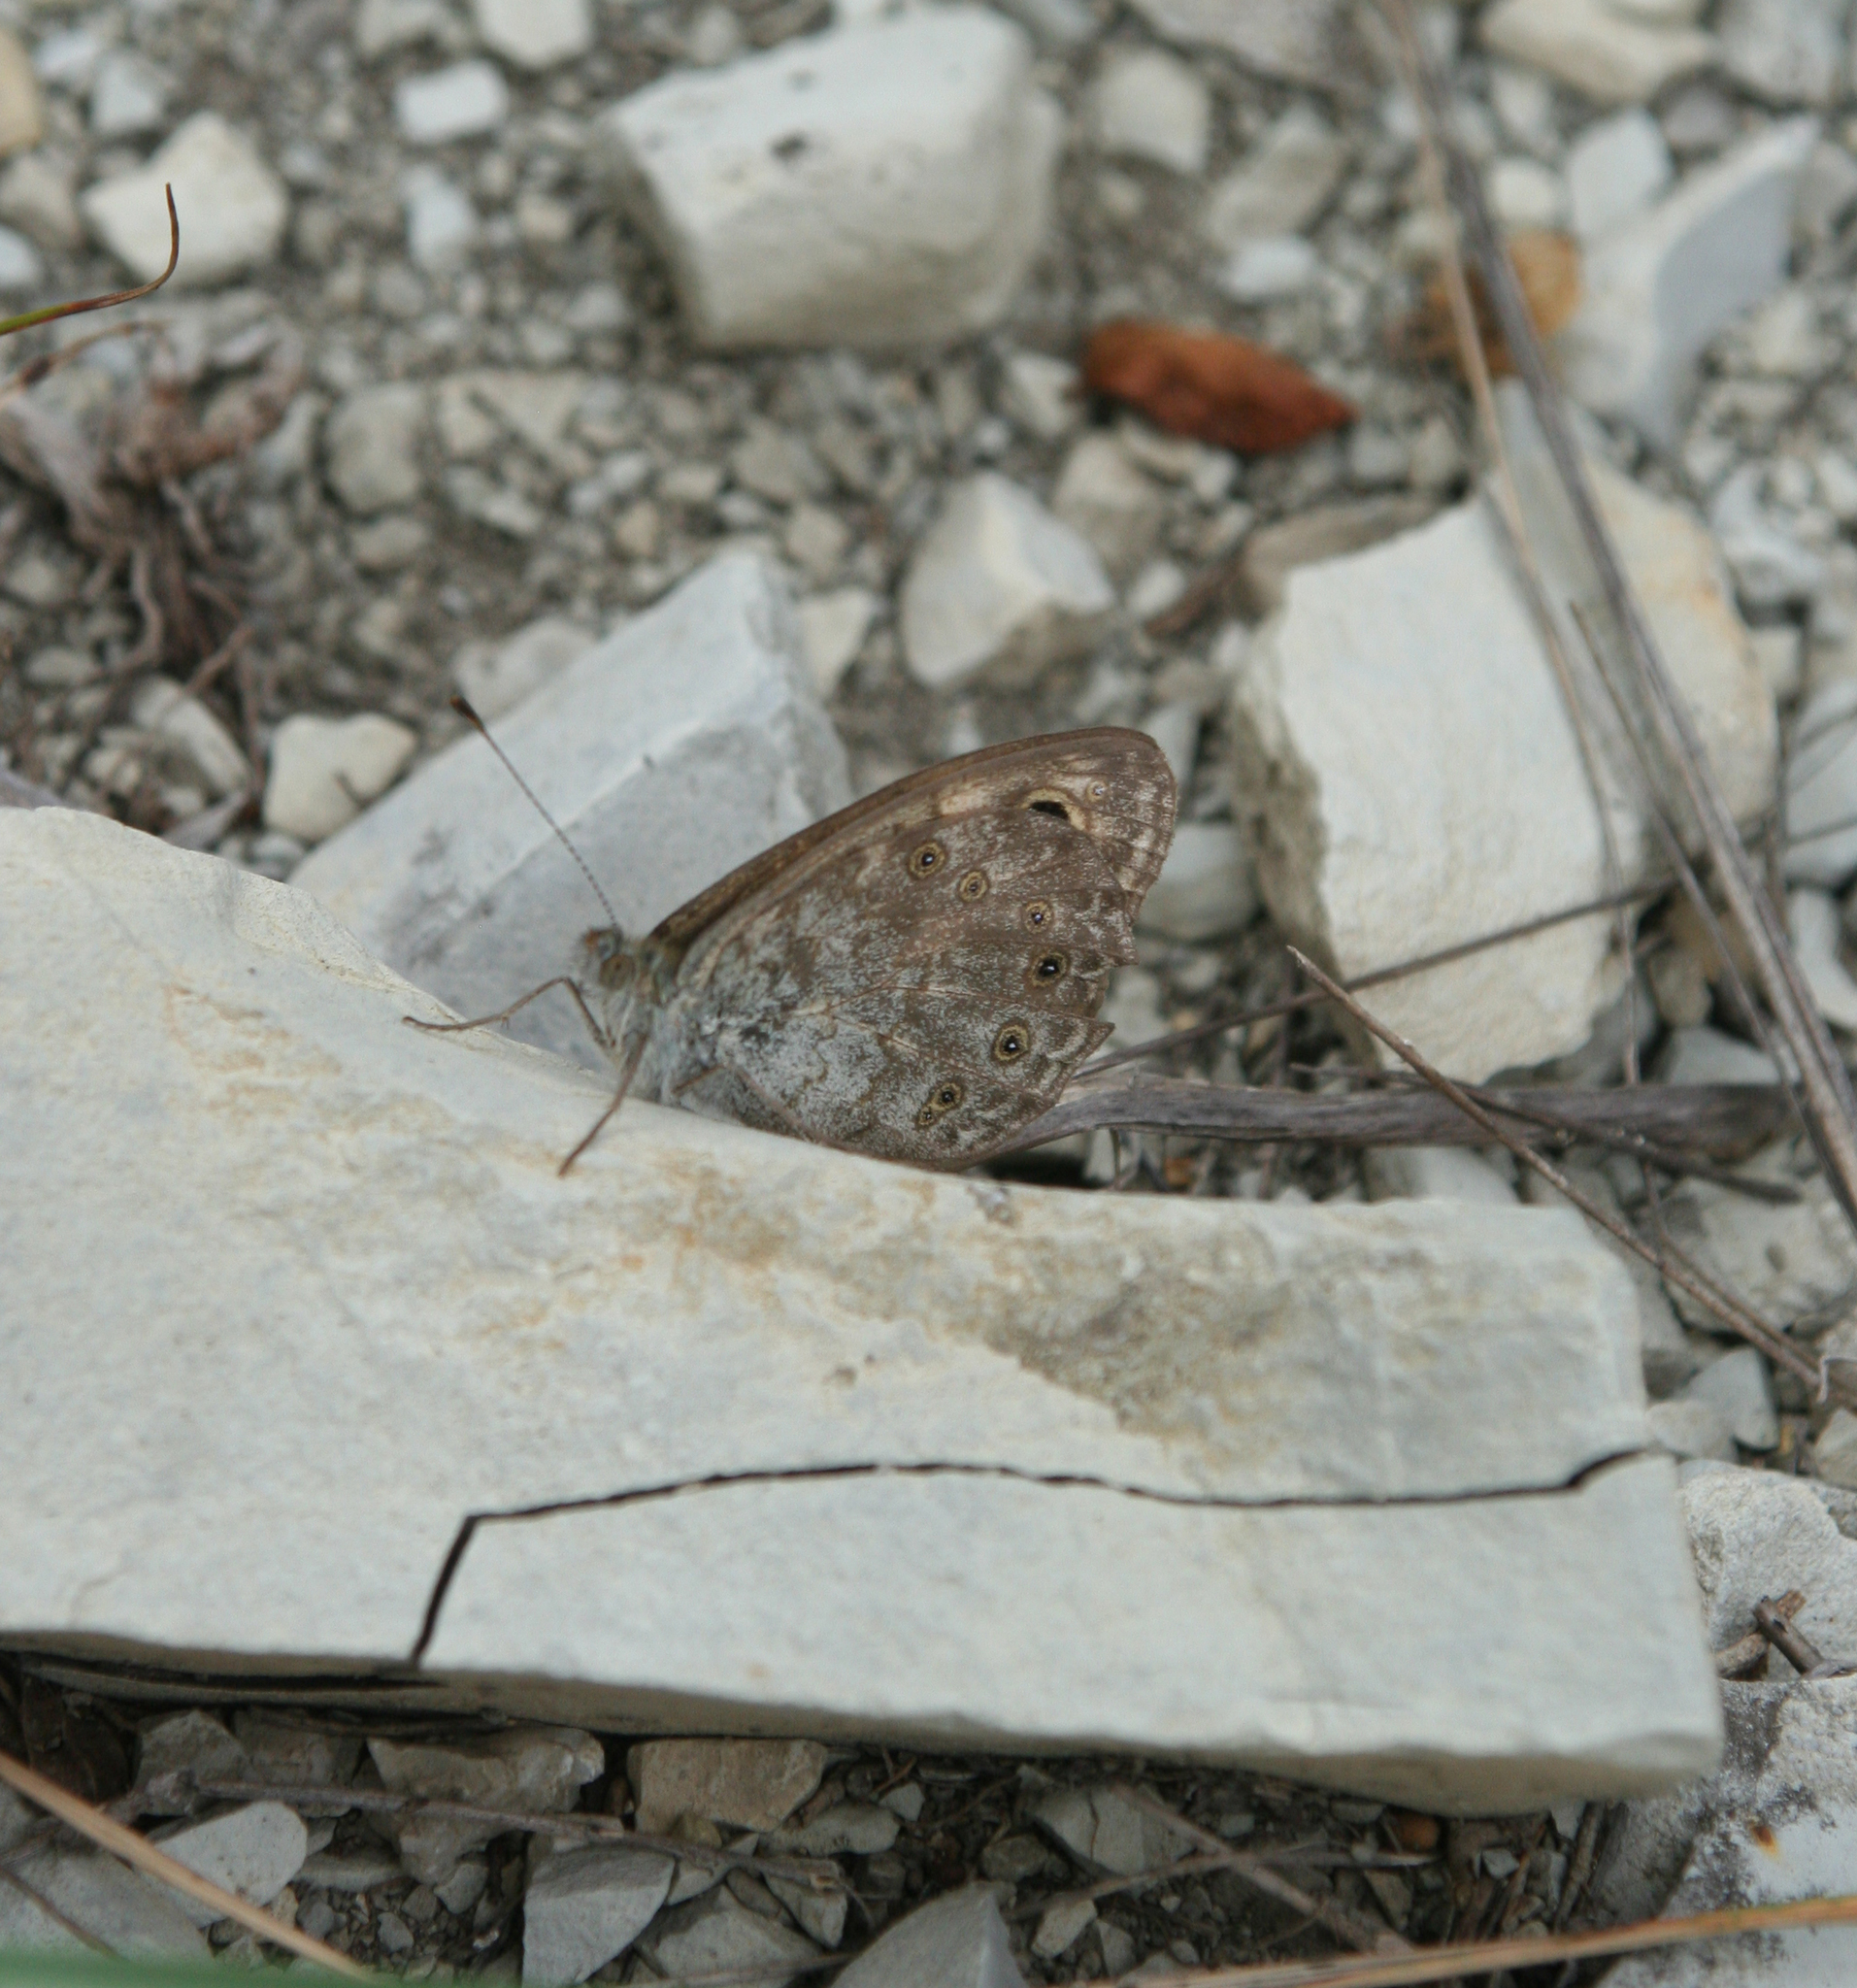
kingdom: Animalia
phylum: Arthropoda
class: Insecta
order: Lepidoptera
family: Nymphalidae
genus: Pararge
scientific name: Pararge Lasiommata megera
